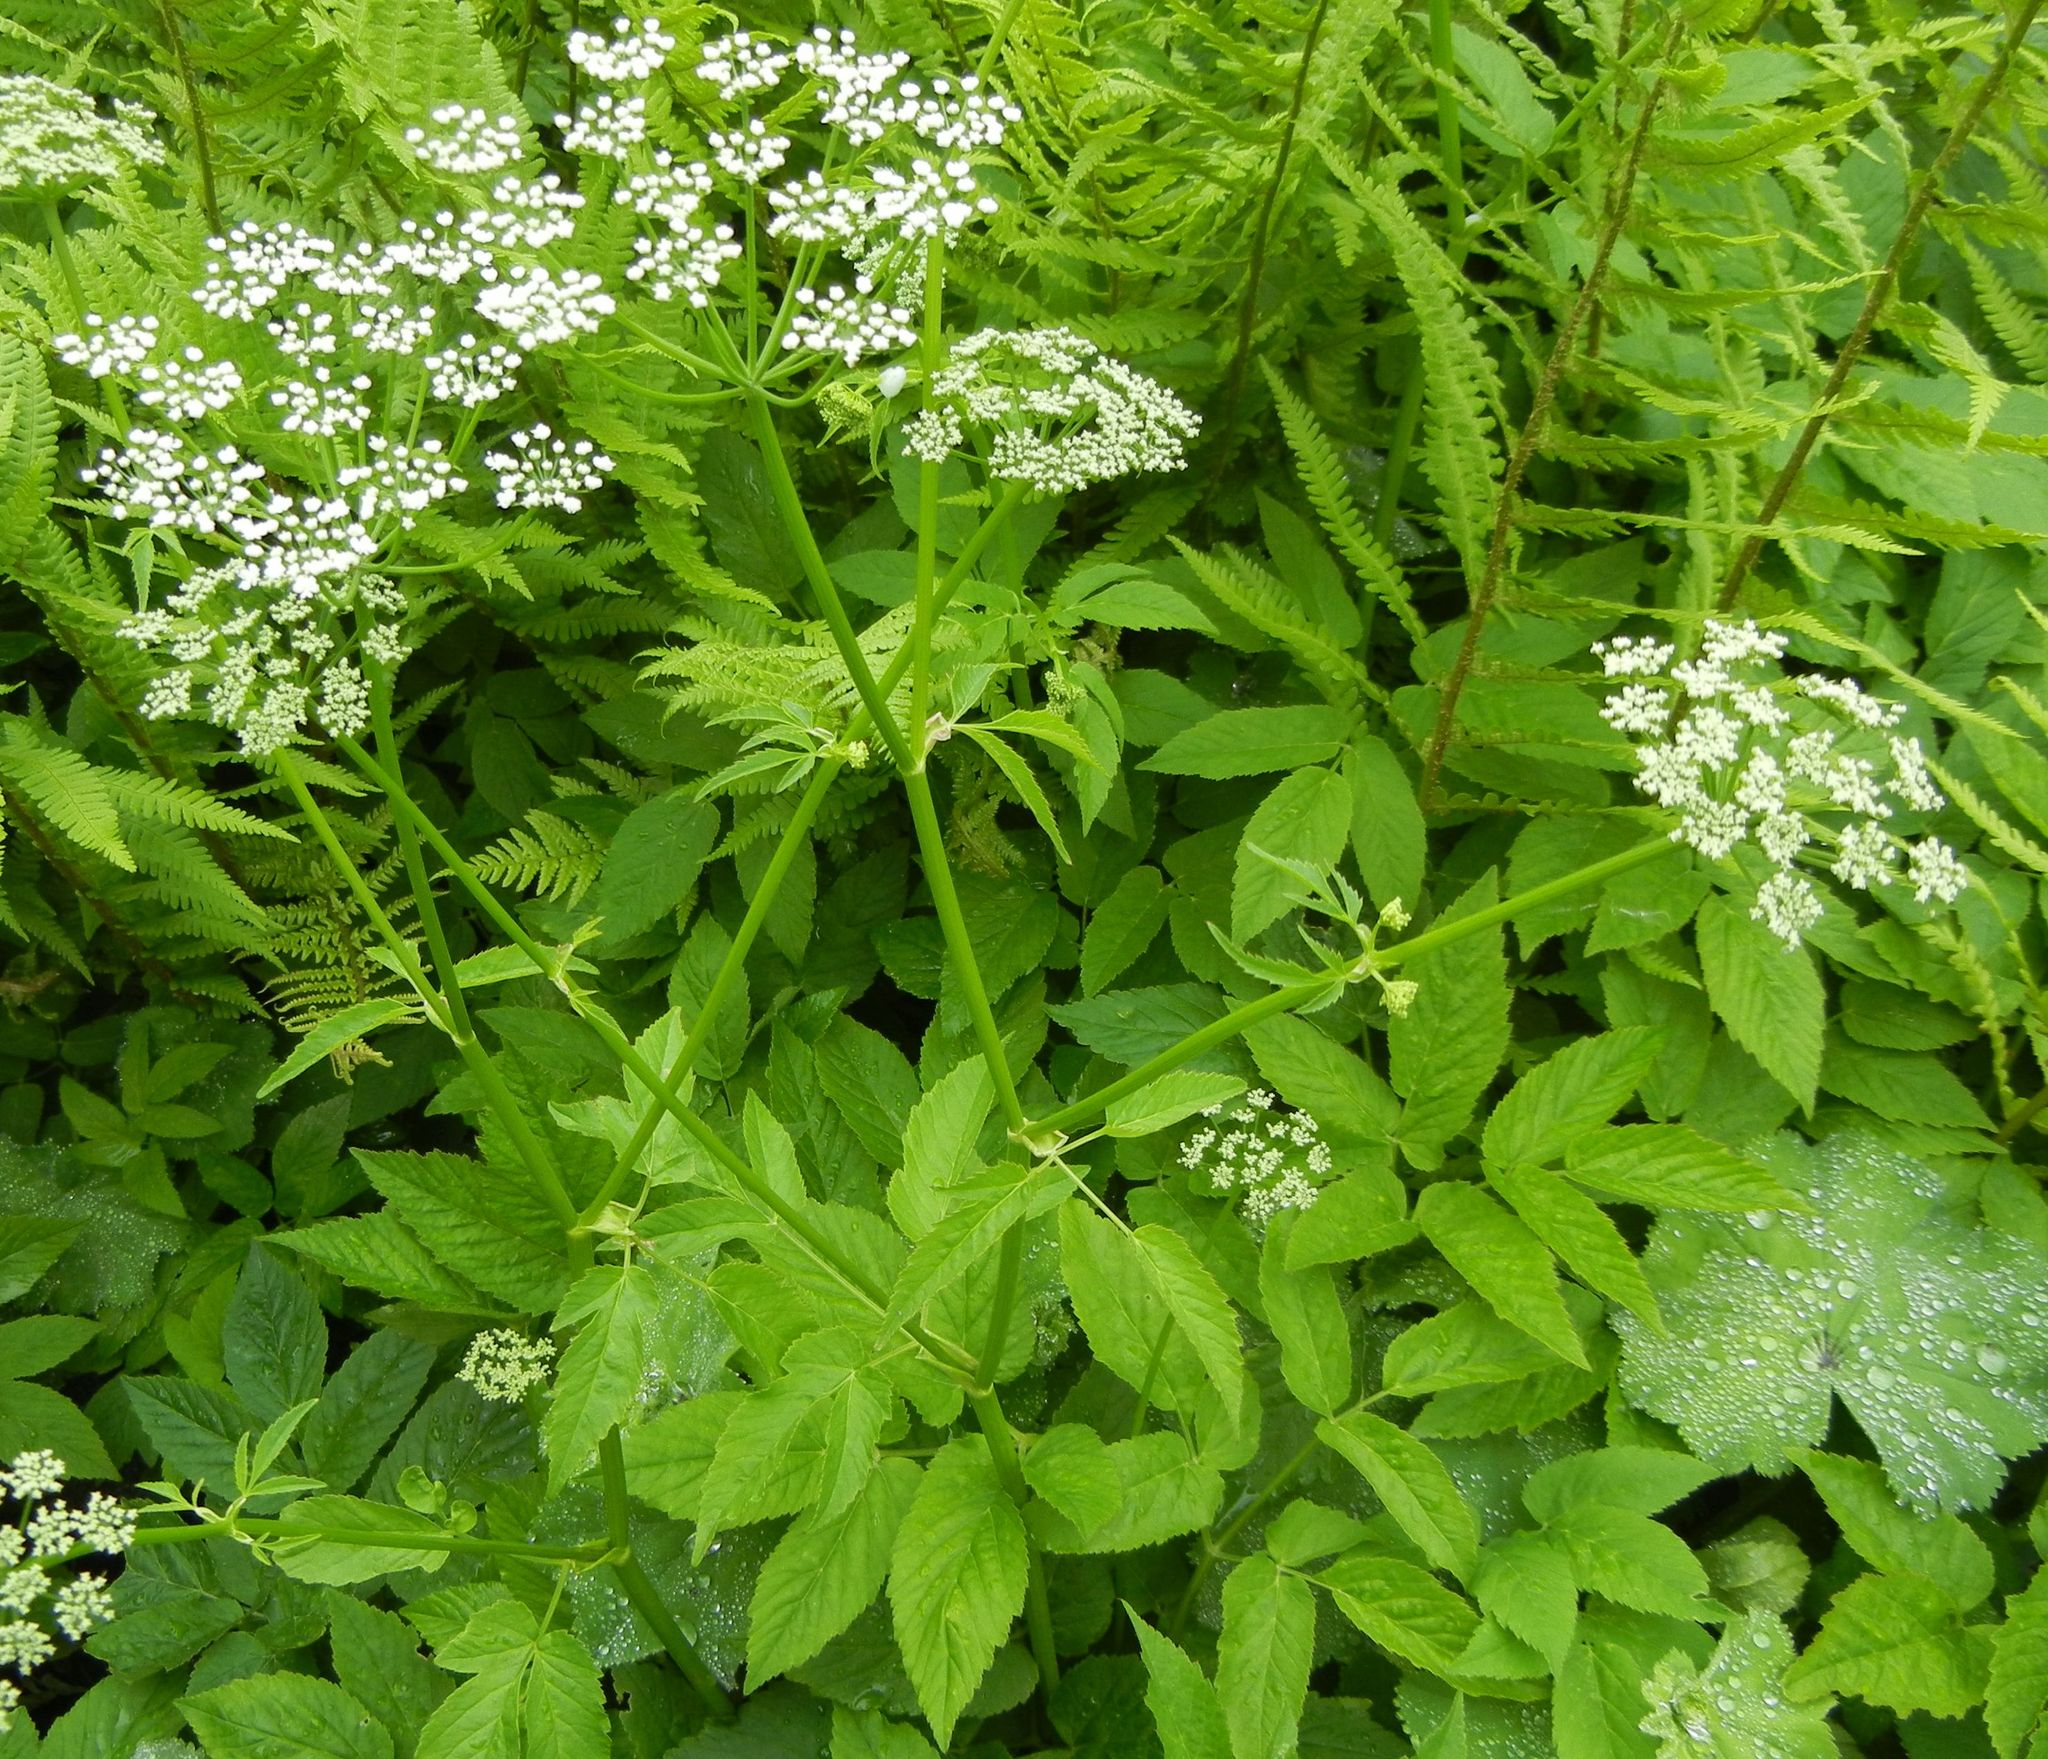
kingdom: Plantae
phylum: Tracheophyta
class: Magnoliopsida
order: Apiales
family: Apiaceae
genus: Aegopodium
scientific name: Aegopodium podagraria
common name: Ground-elder
